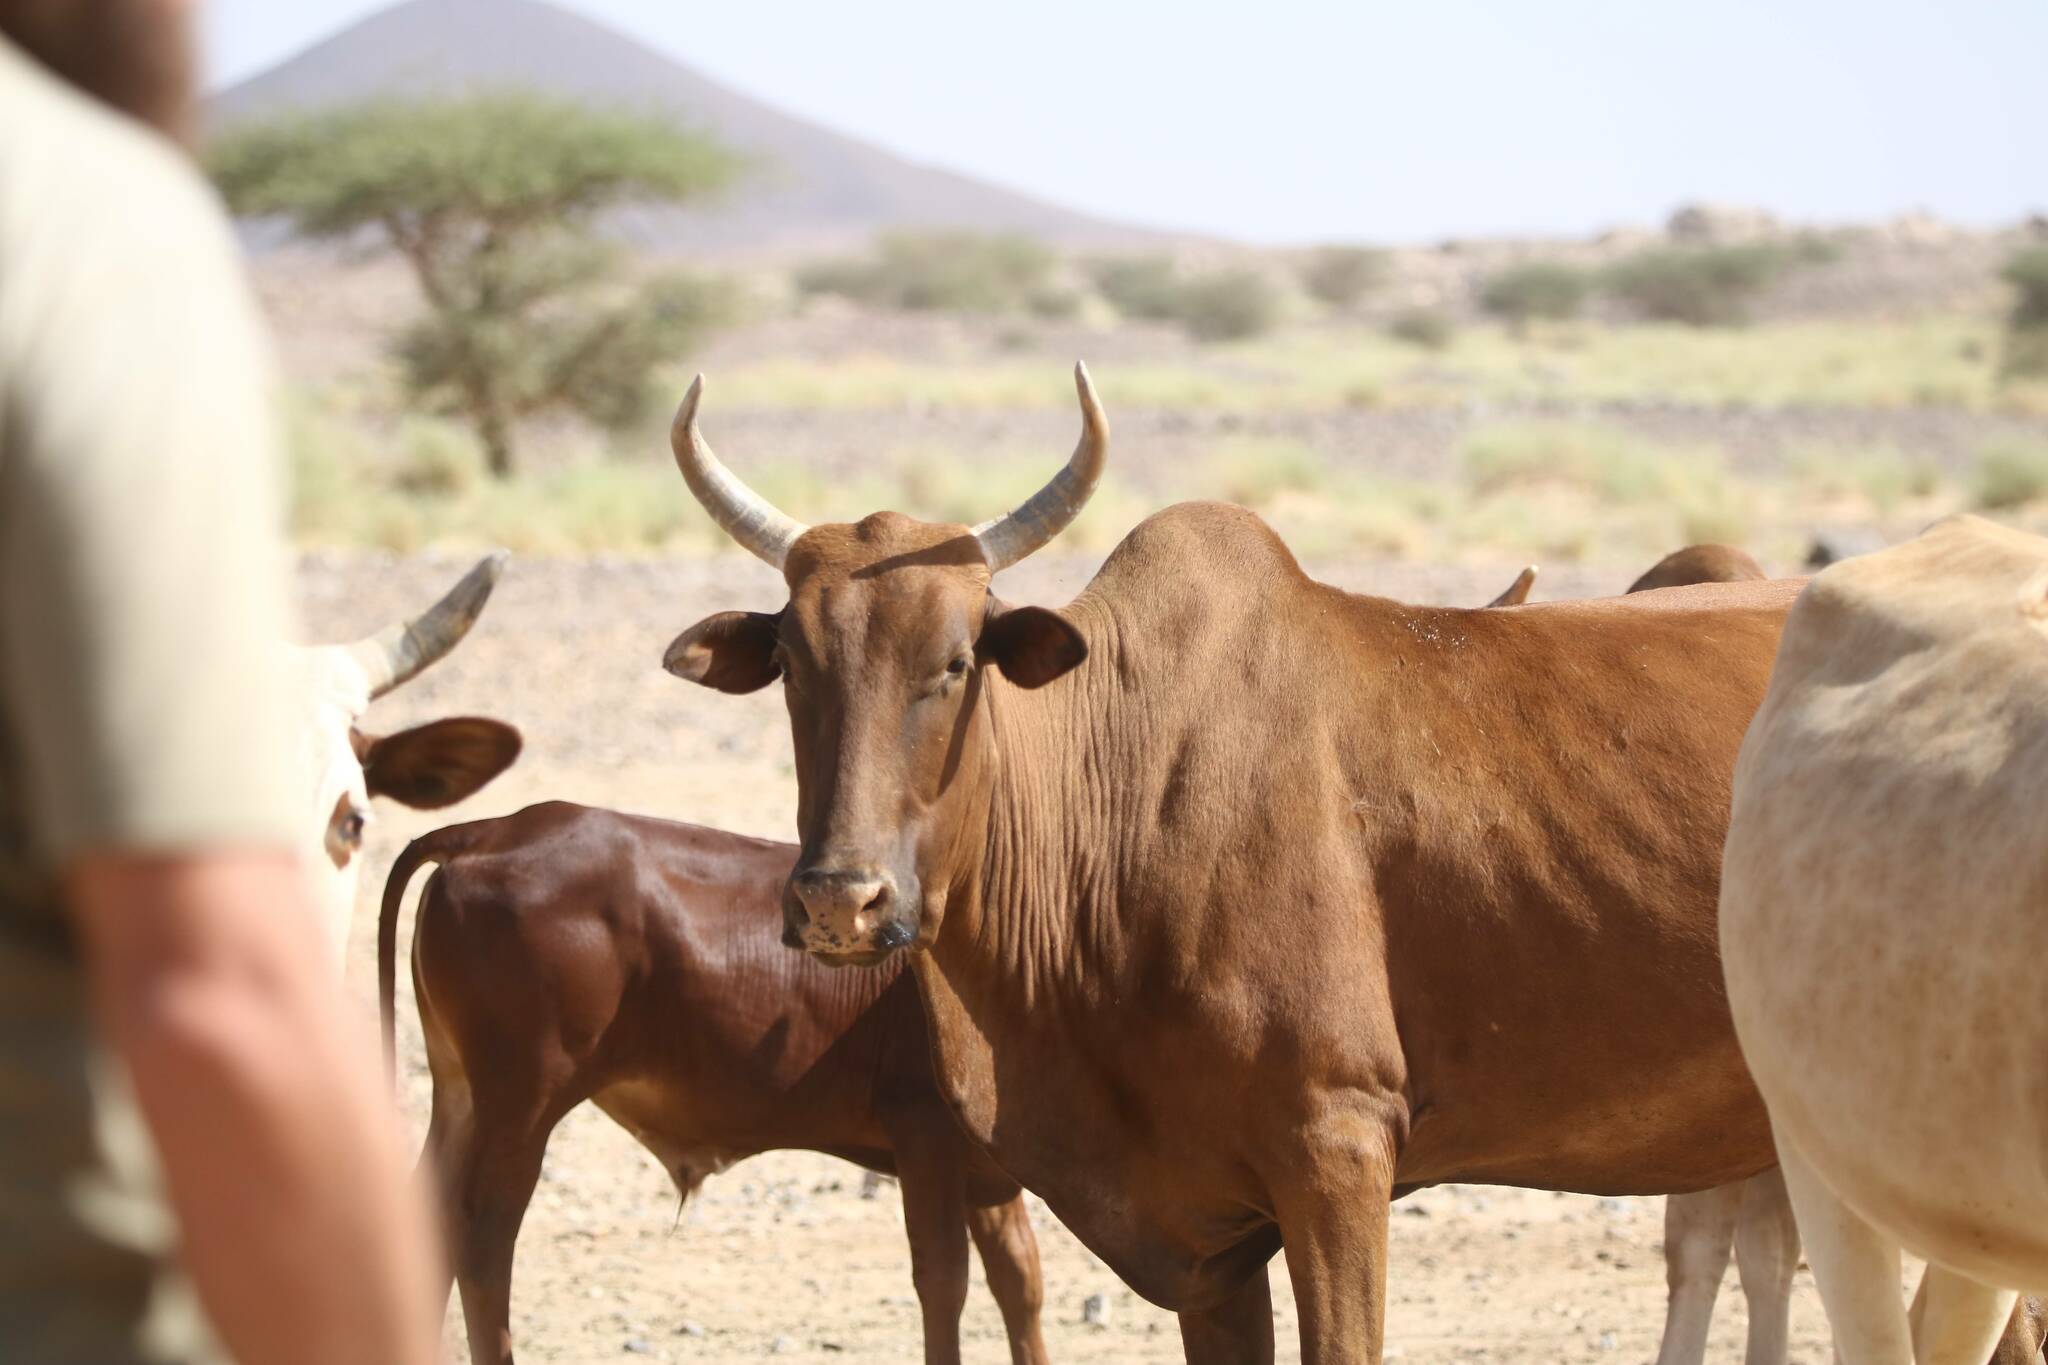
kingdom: Animalia
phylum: Chordata
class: Mammalia
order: Artiodactyla
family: Bovidae
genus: Bos
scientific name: Bos taurus
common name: Domesticated cattle
